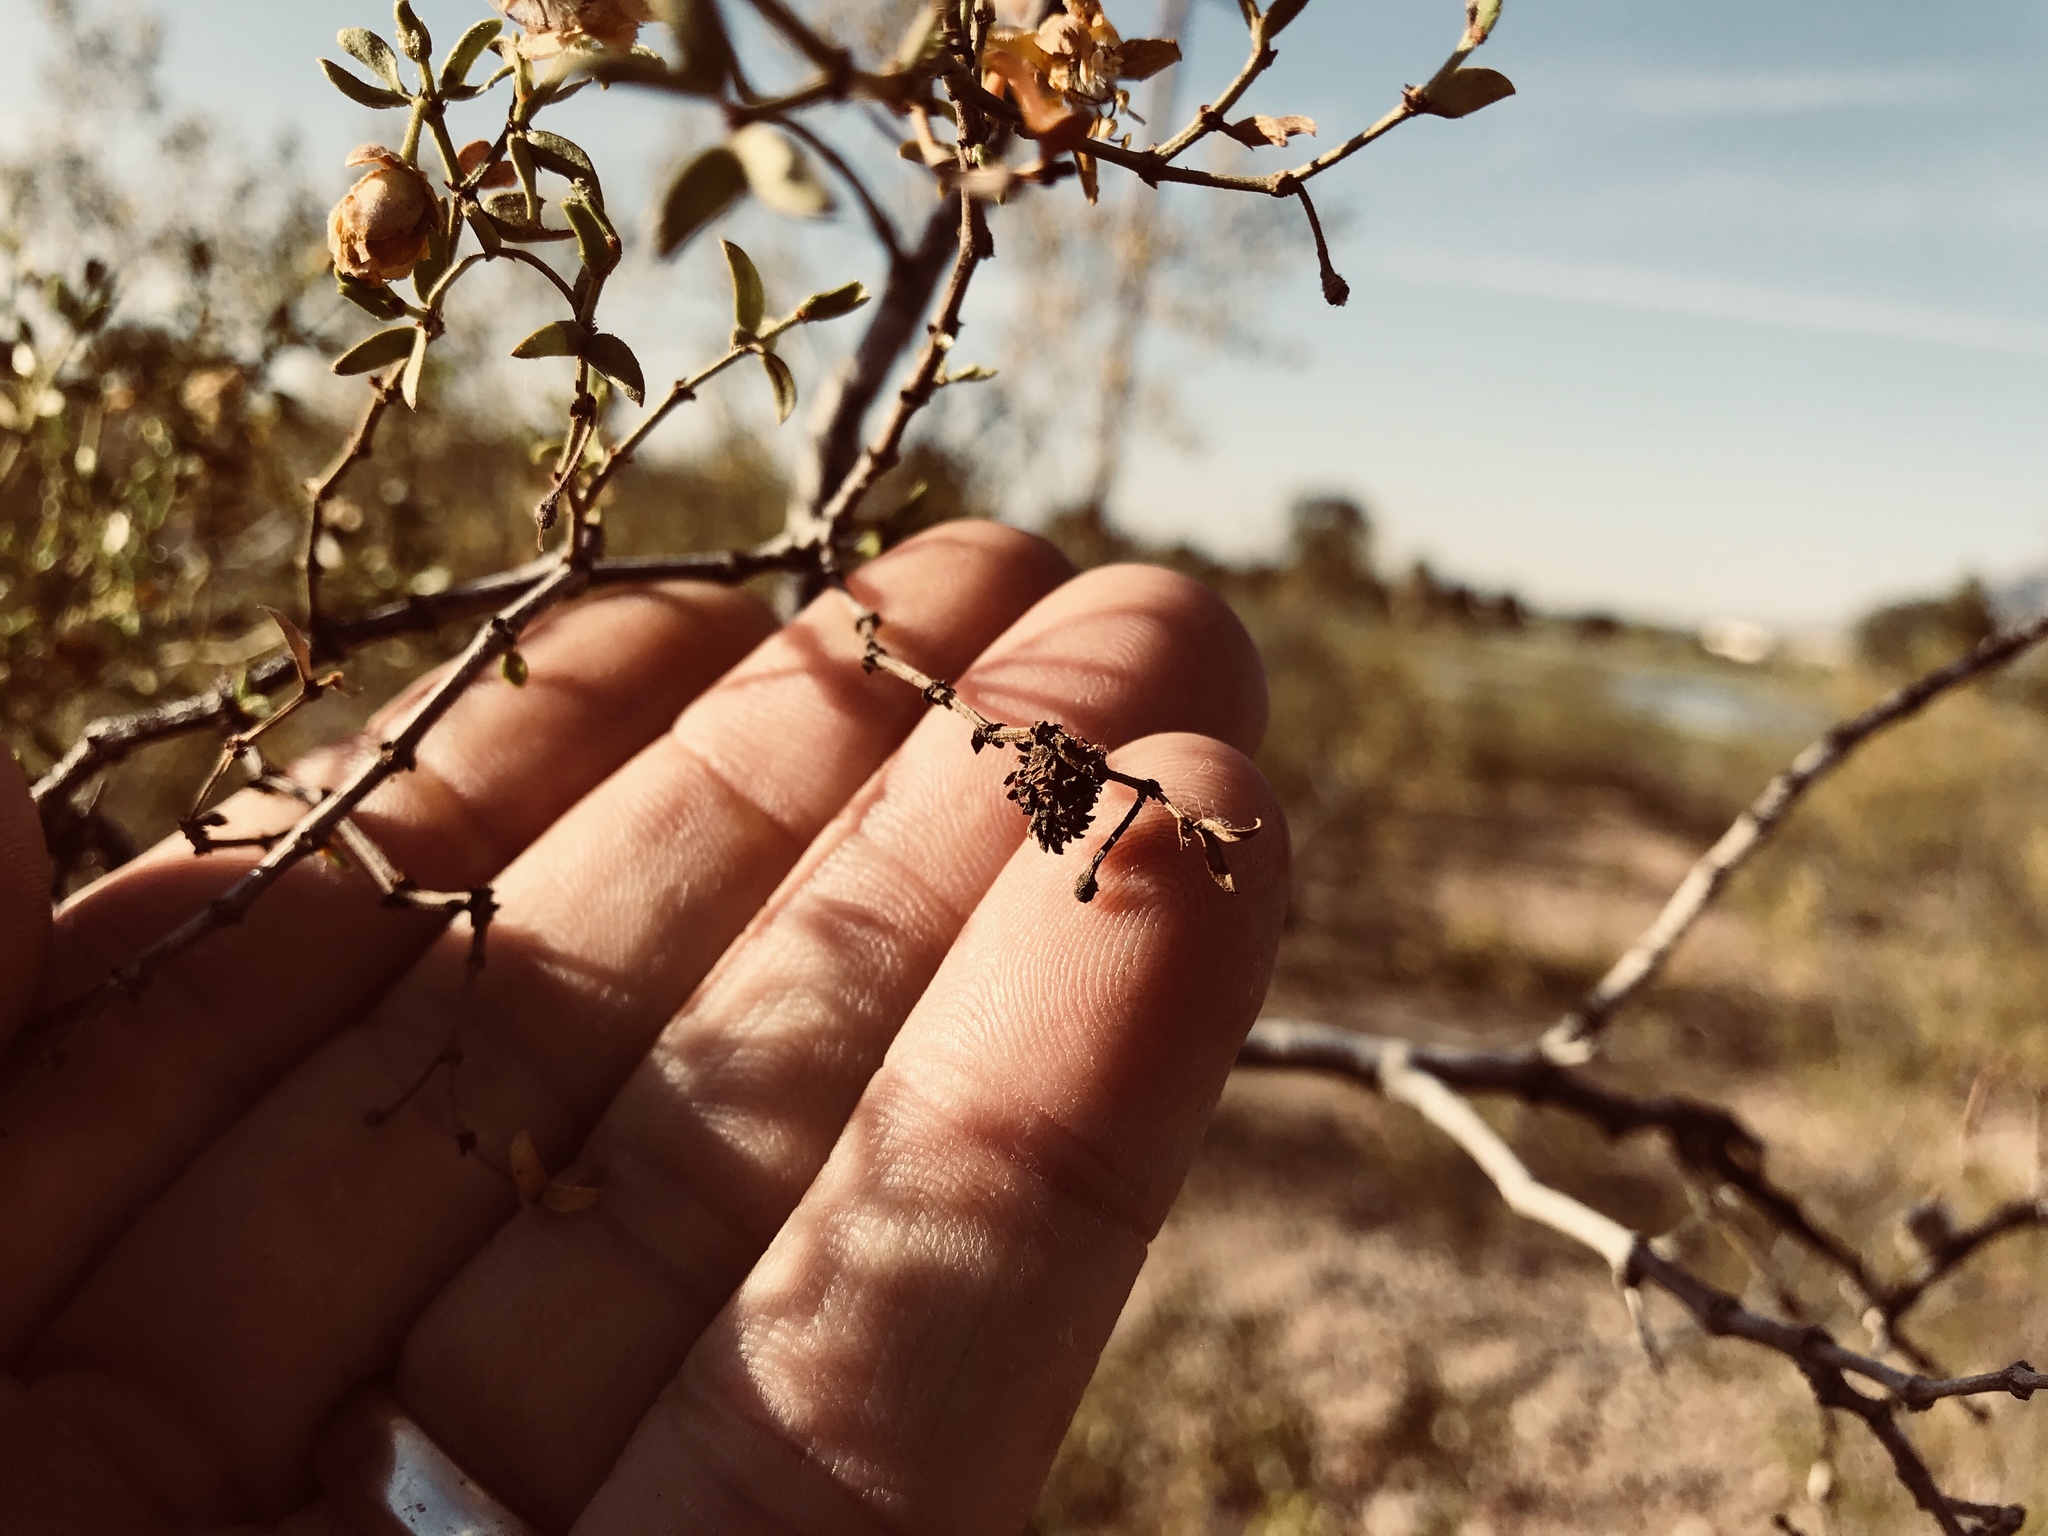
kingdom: Animalia
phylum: Arthropoda
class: Insecta
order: Diptera
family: Cecidomyiidae
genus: Asphondylia
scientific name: Asphondylia rosetta
